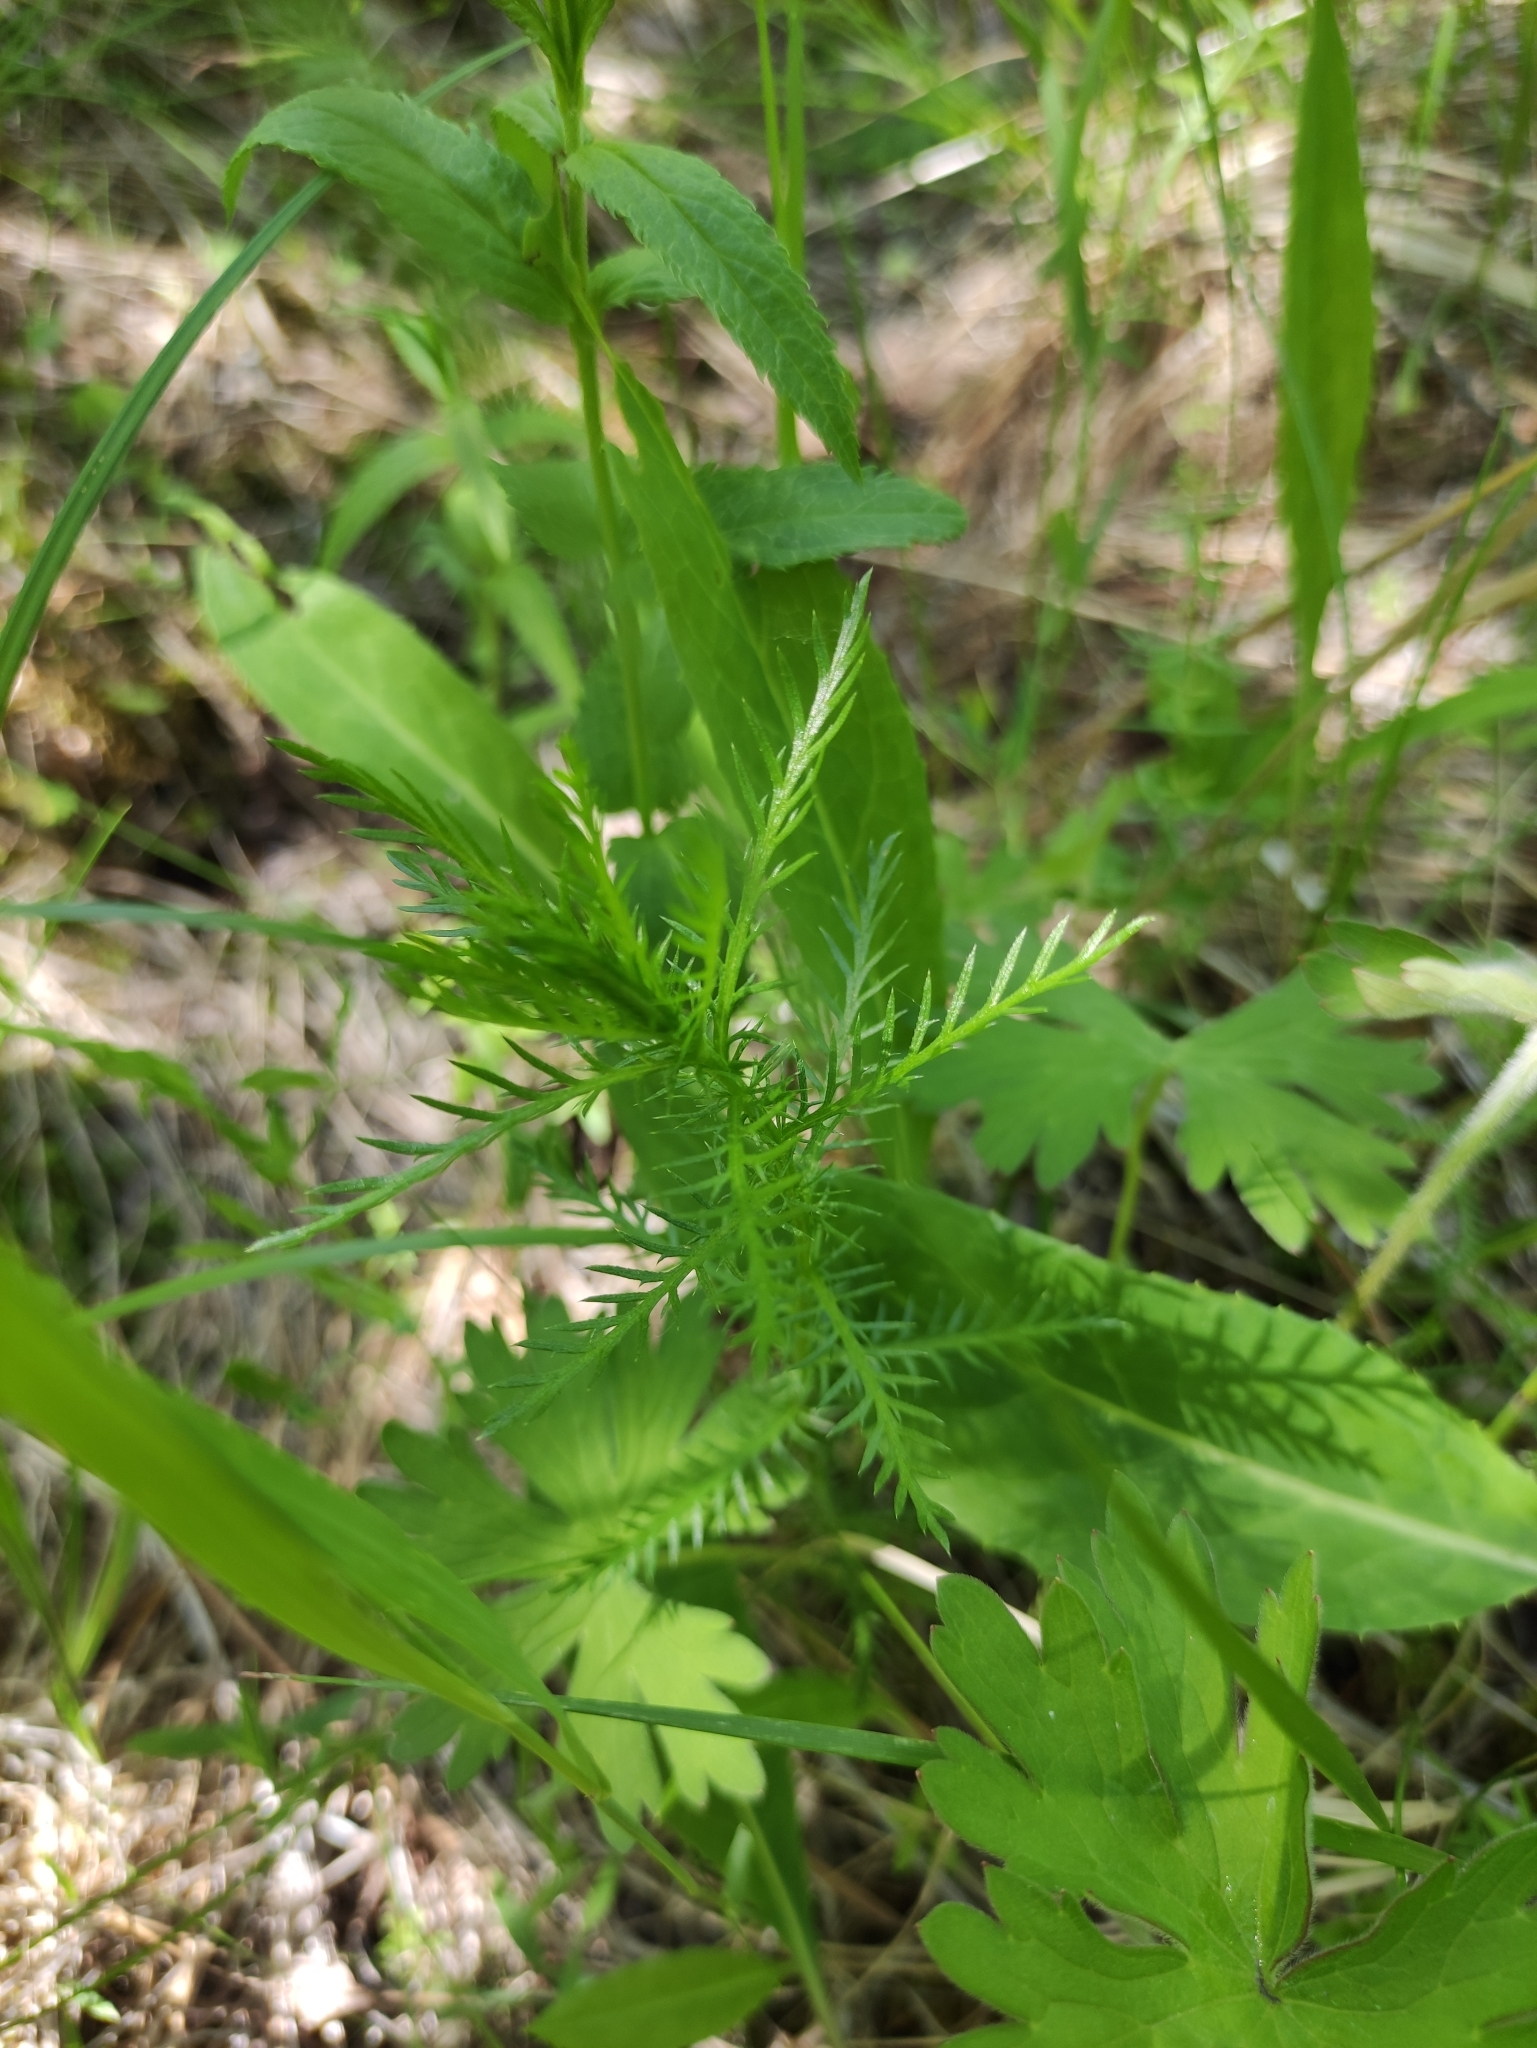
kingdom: Plantae
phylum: Tracheophyta
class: Magnoliopsida
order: Asterales
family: Asteraceae
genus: Achillea
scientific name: Achillea impatiens
